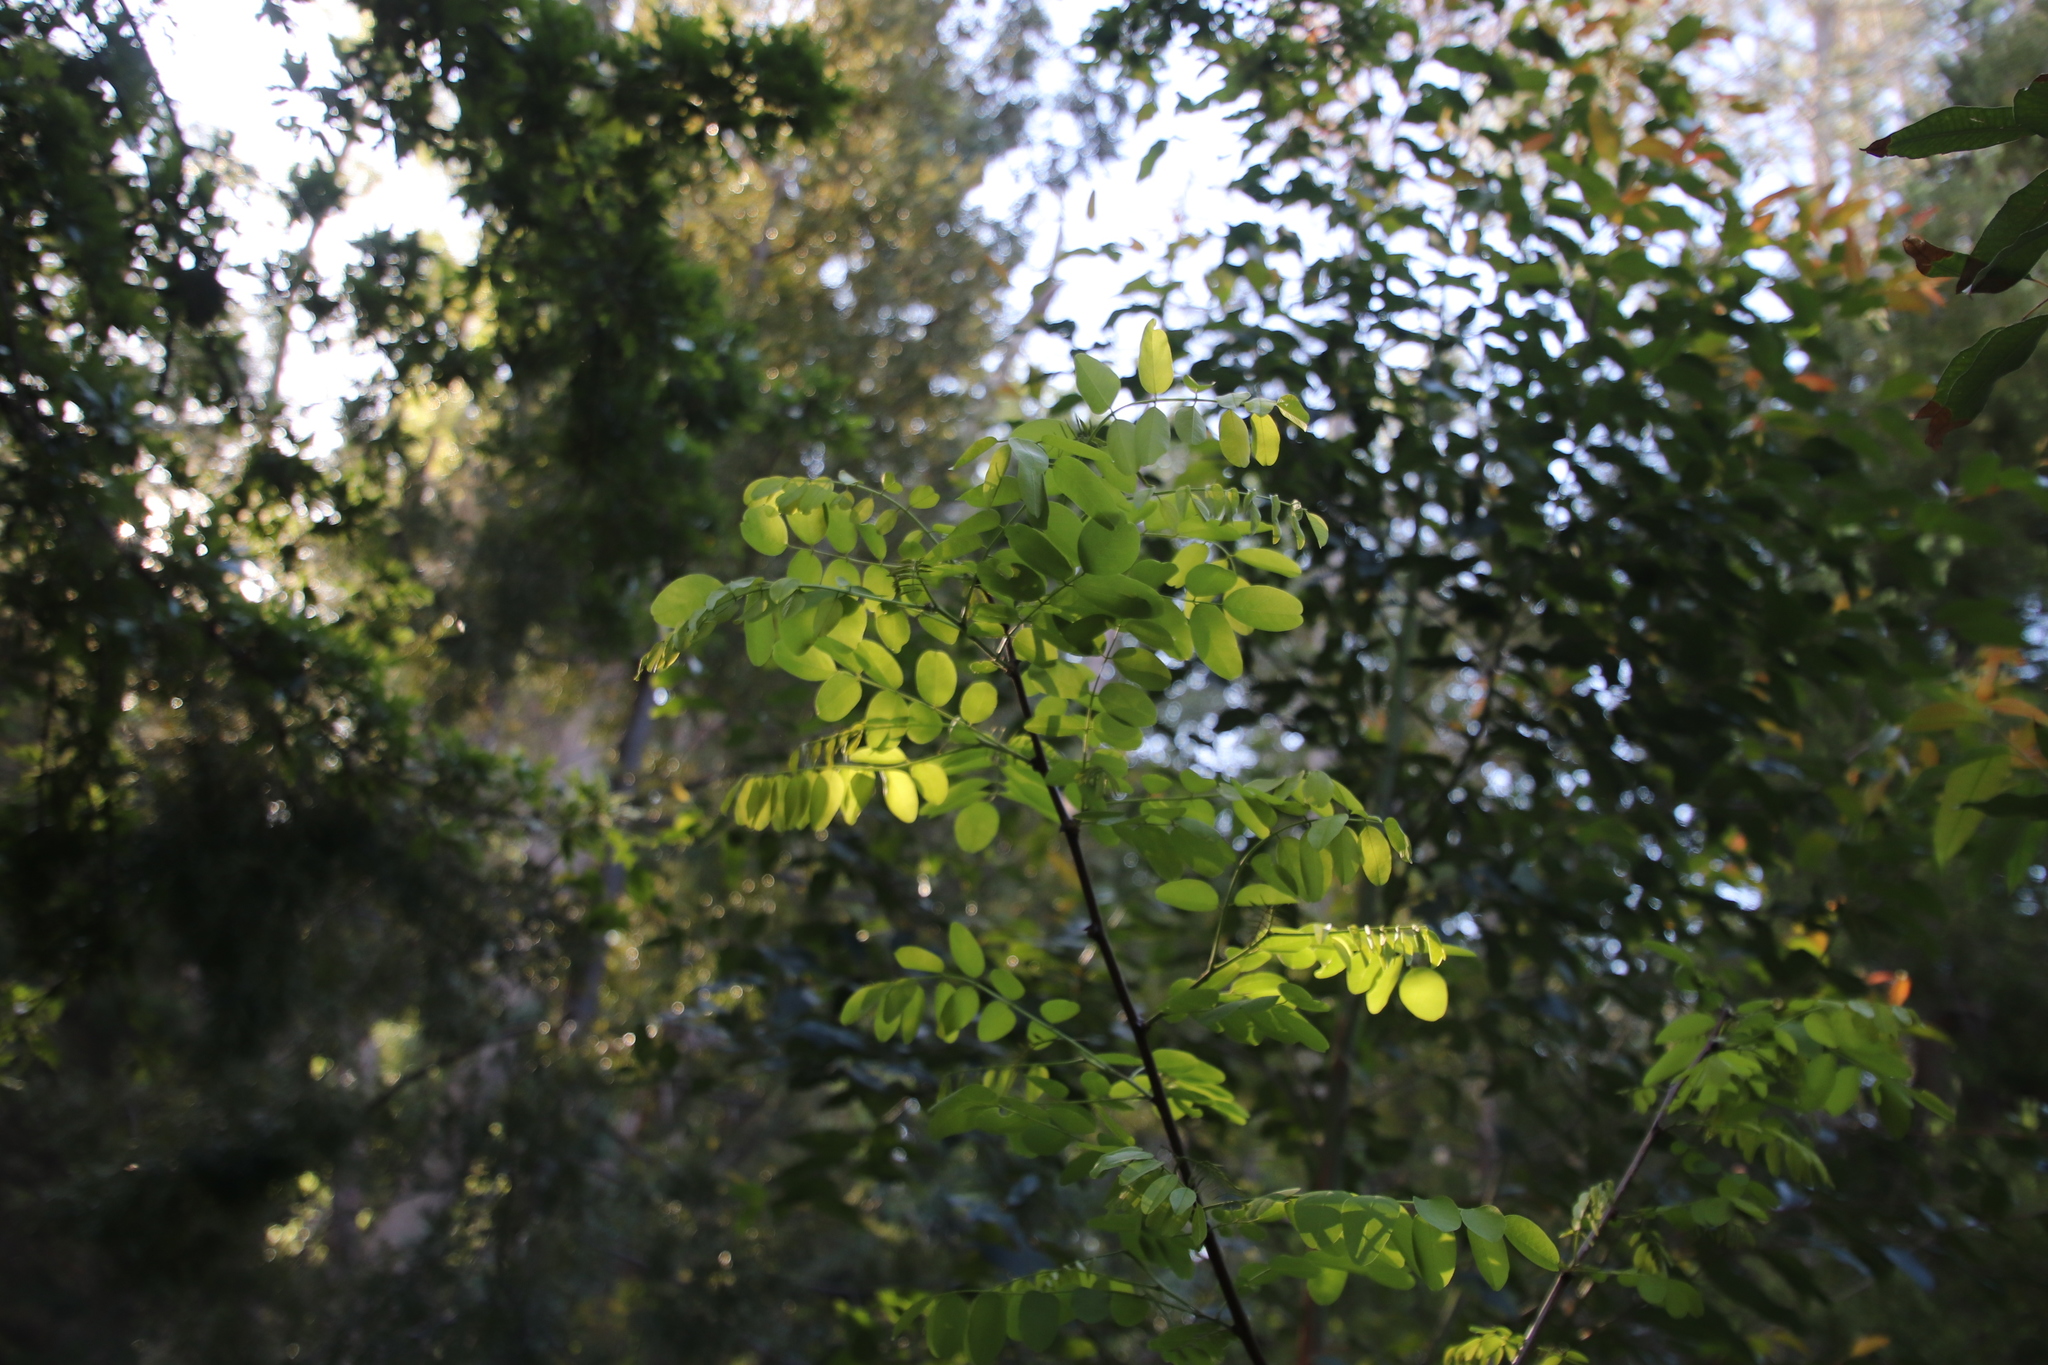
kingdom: Plantae
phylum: Tracheophyta
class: Magnoliopsida
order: Fabales
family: Fabaceae
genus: Robinia
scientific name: Robinia pseudoacacia
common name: Black locust
